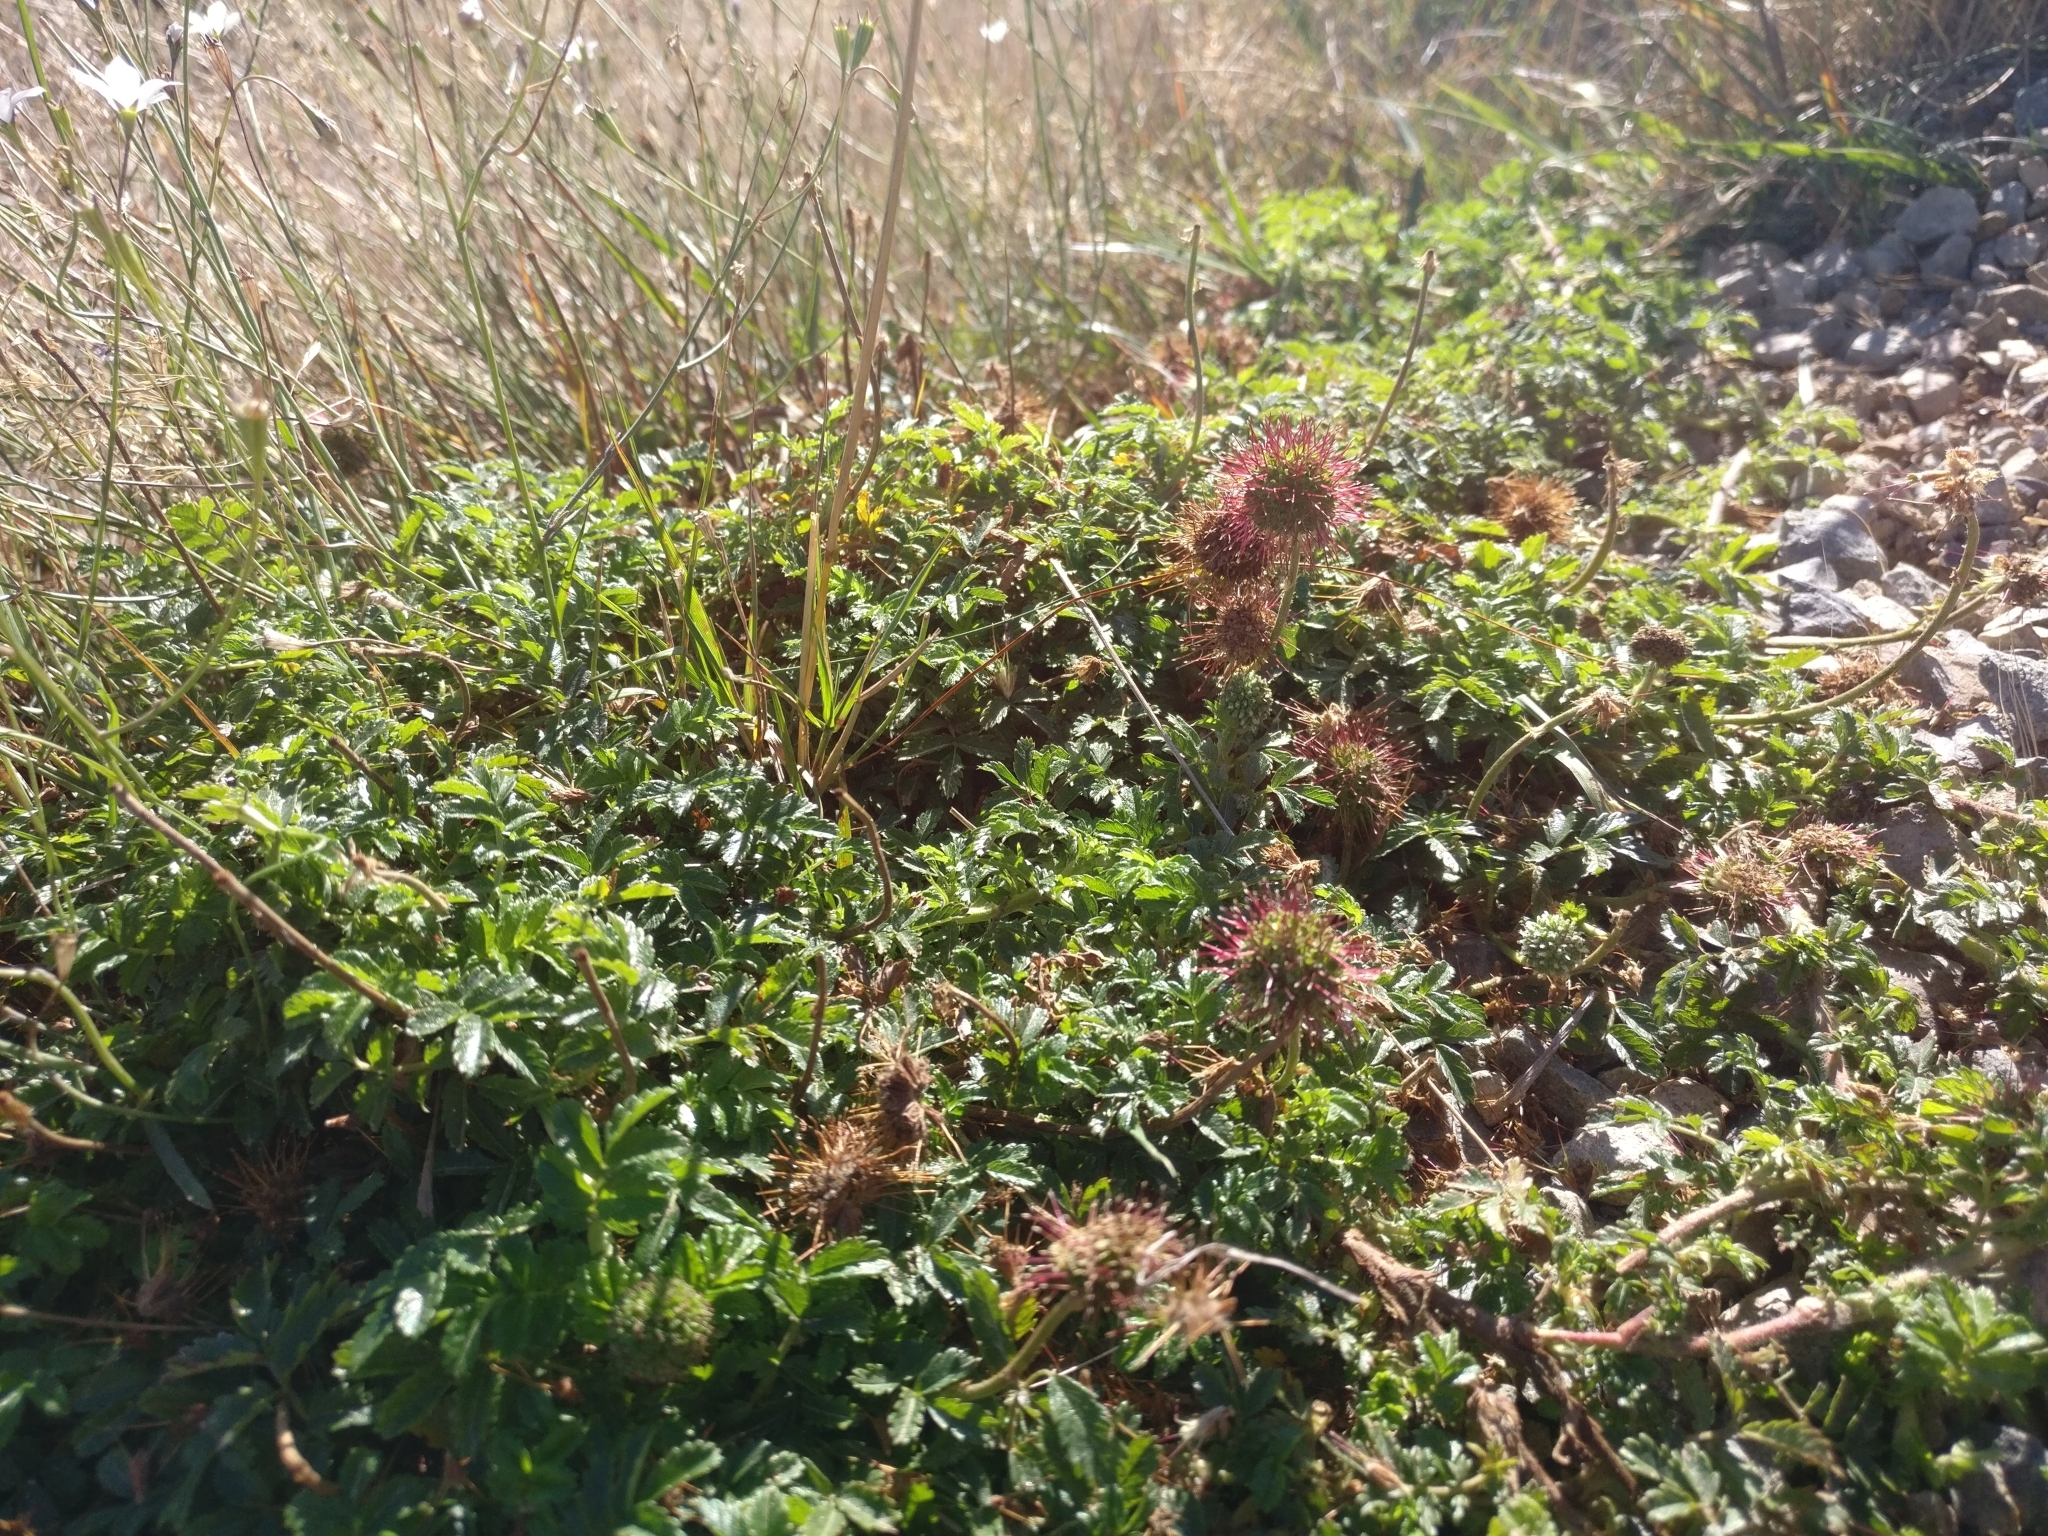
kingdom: Plantae
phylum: Tracheophyta
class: Magnoliopsida
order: Rosales
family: Rosaceae
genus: Acaena
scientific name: Acaena novae-zelandiae
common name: Pirri-pirri-bur
